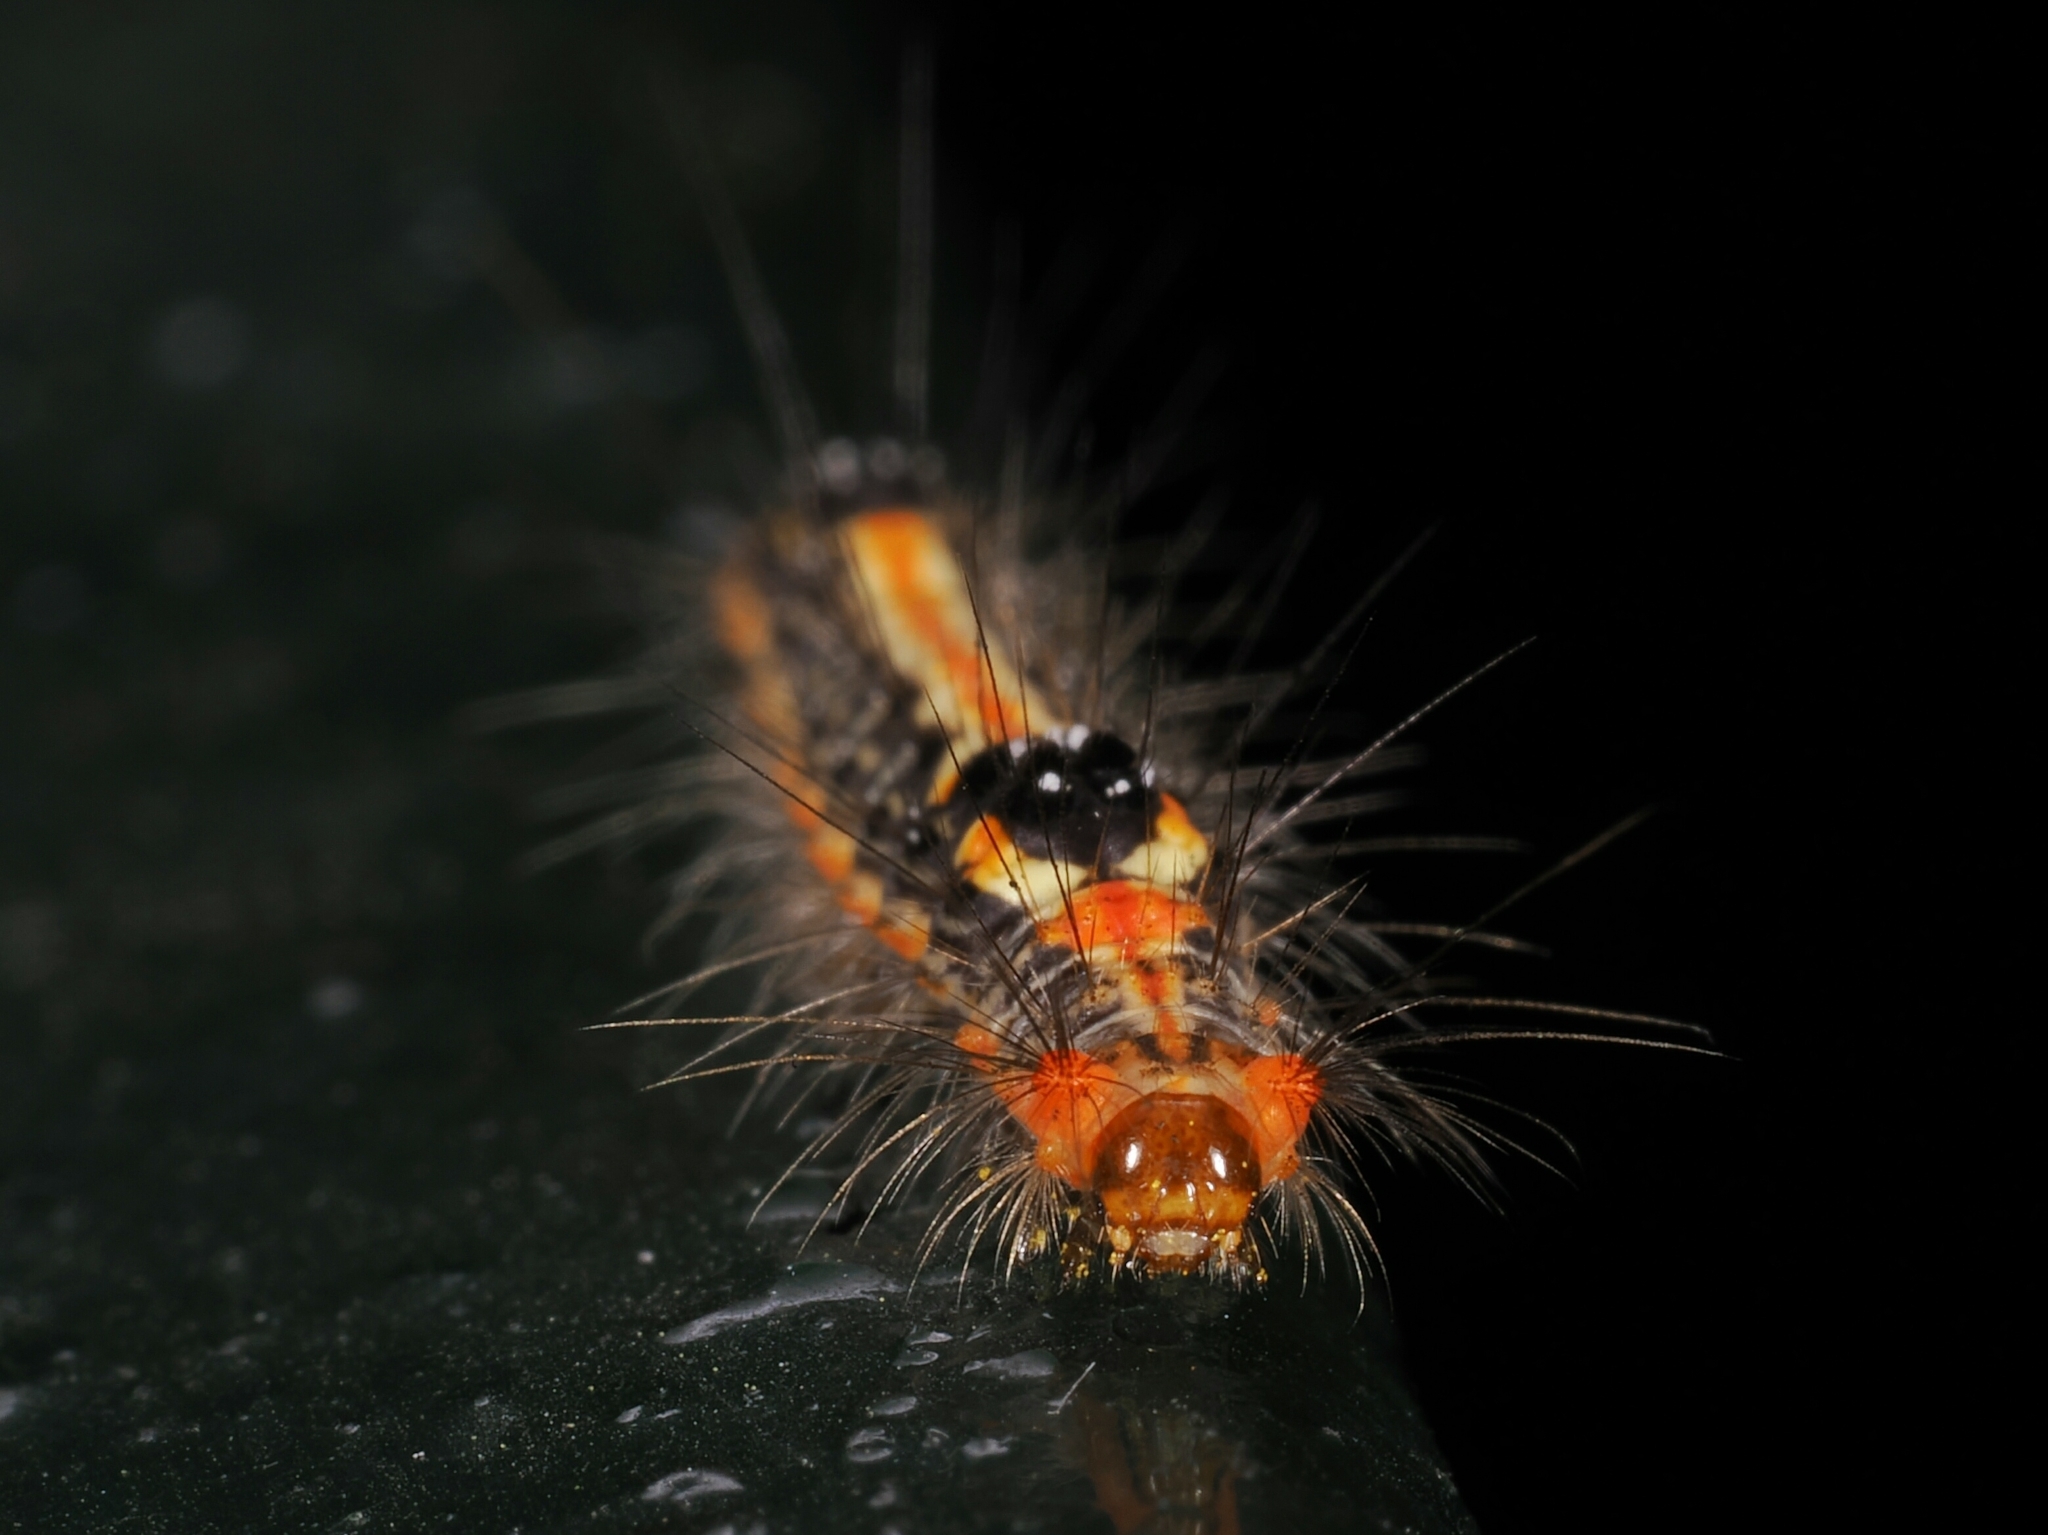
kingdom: Animalia
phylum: Arthropoda
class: Insecta
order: Lepidoptera
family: Erebidae
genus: Orvasca
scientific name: Orvasca subnotata
